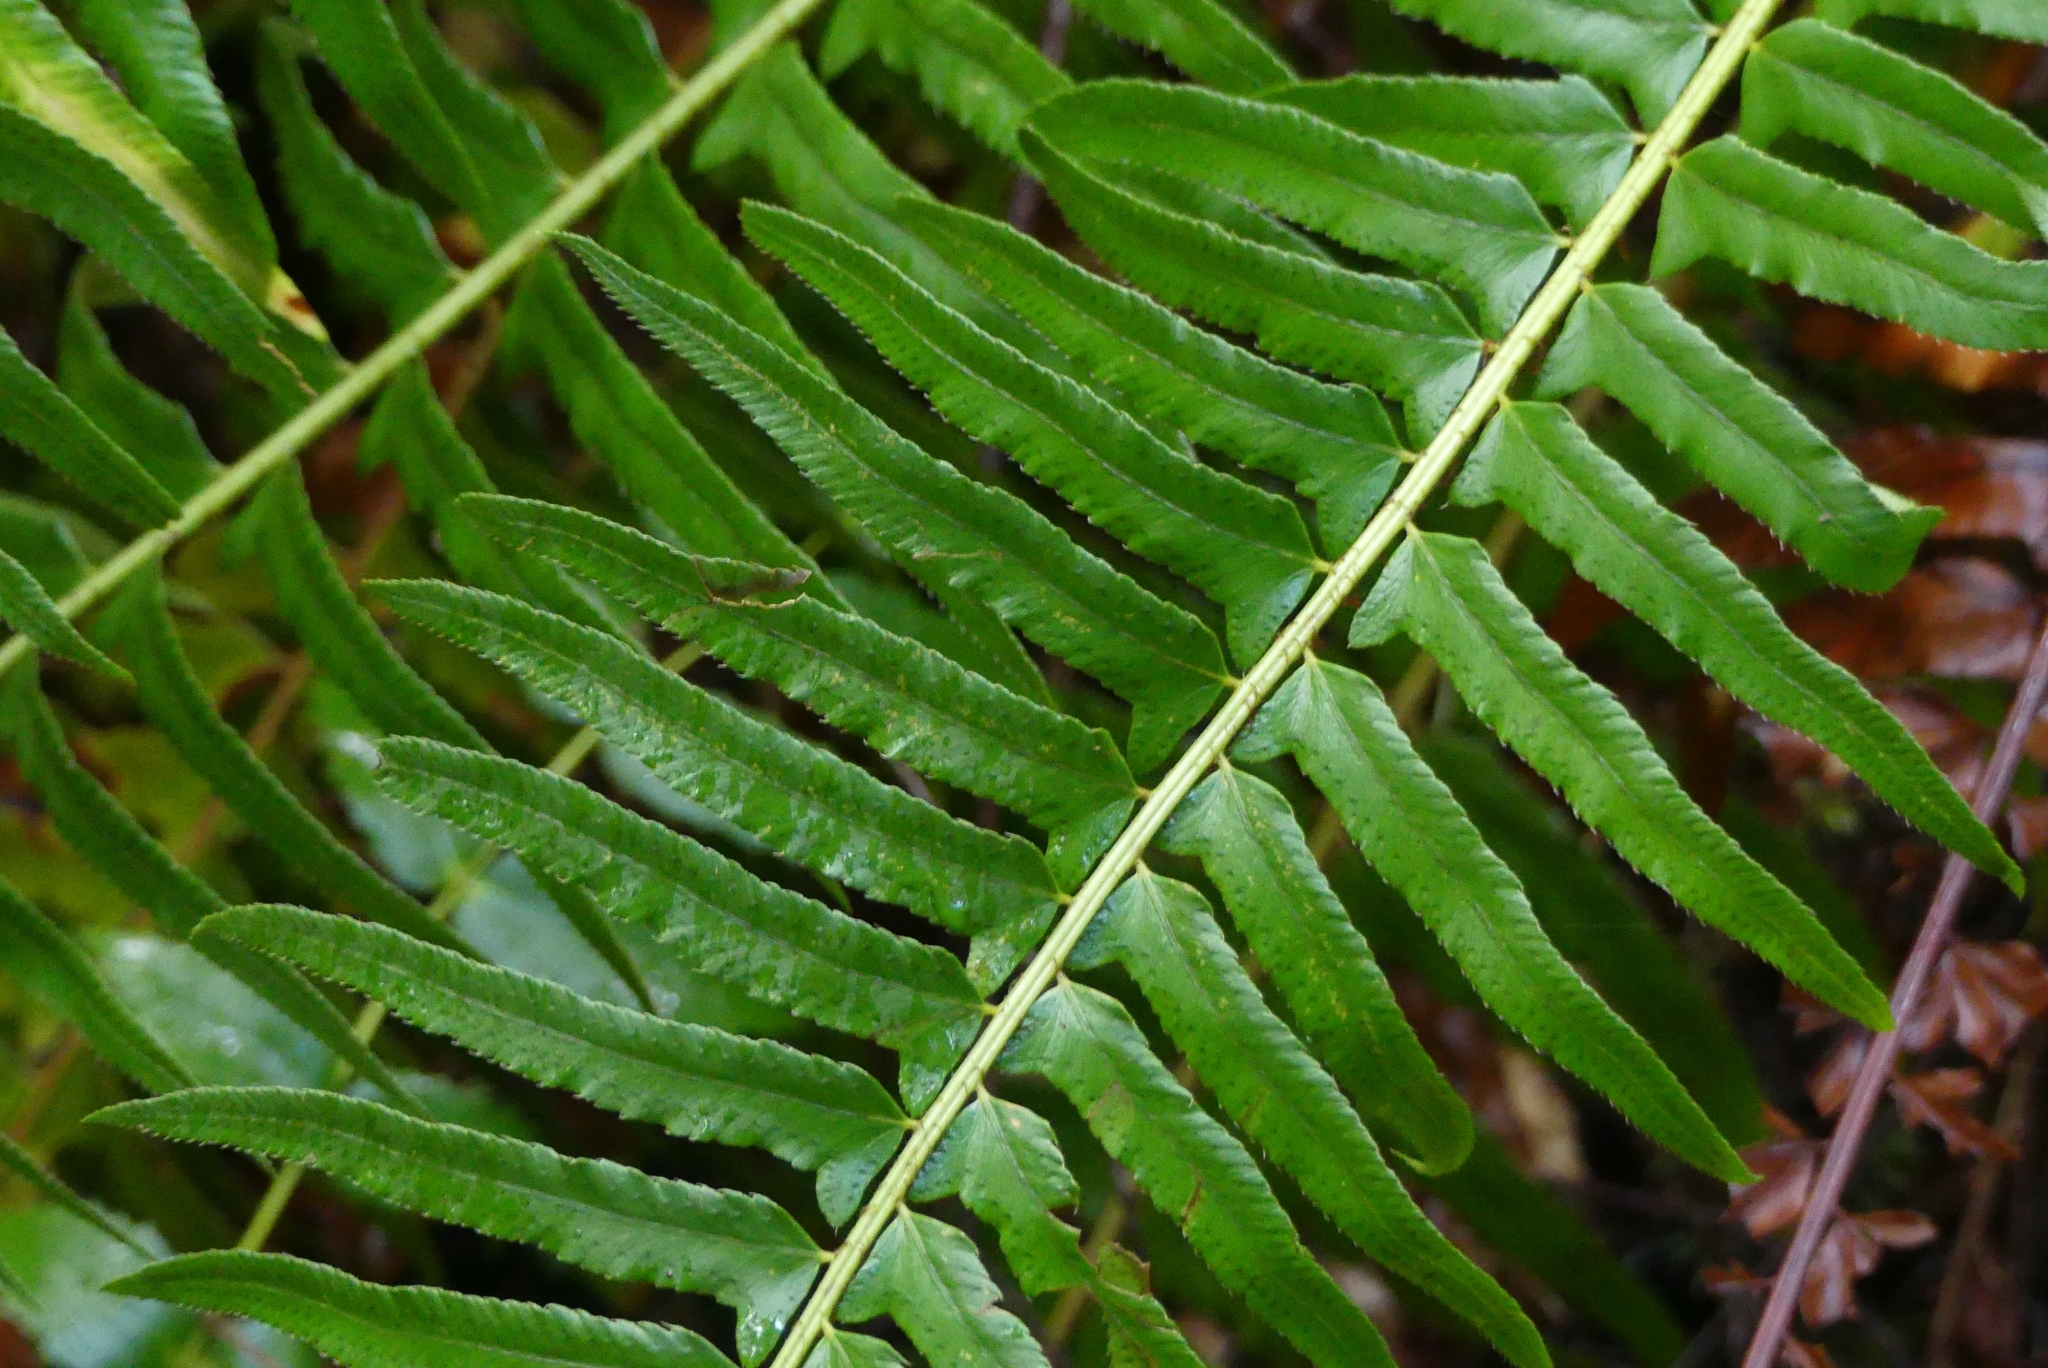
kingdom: Plantae
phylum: Tracheophyta
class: Polypodiopsida
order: Polypodiales
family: Dryopteridaceae
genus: Polystichum
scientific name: Polystichum munitum
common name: Western sword-fern
